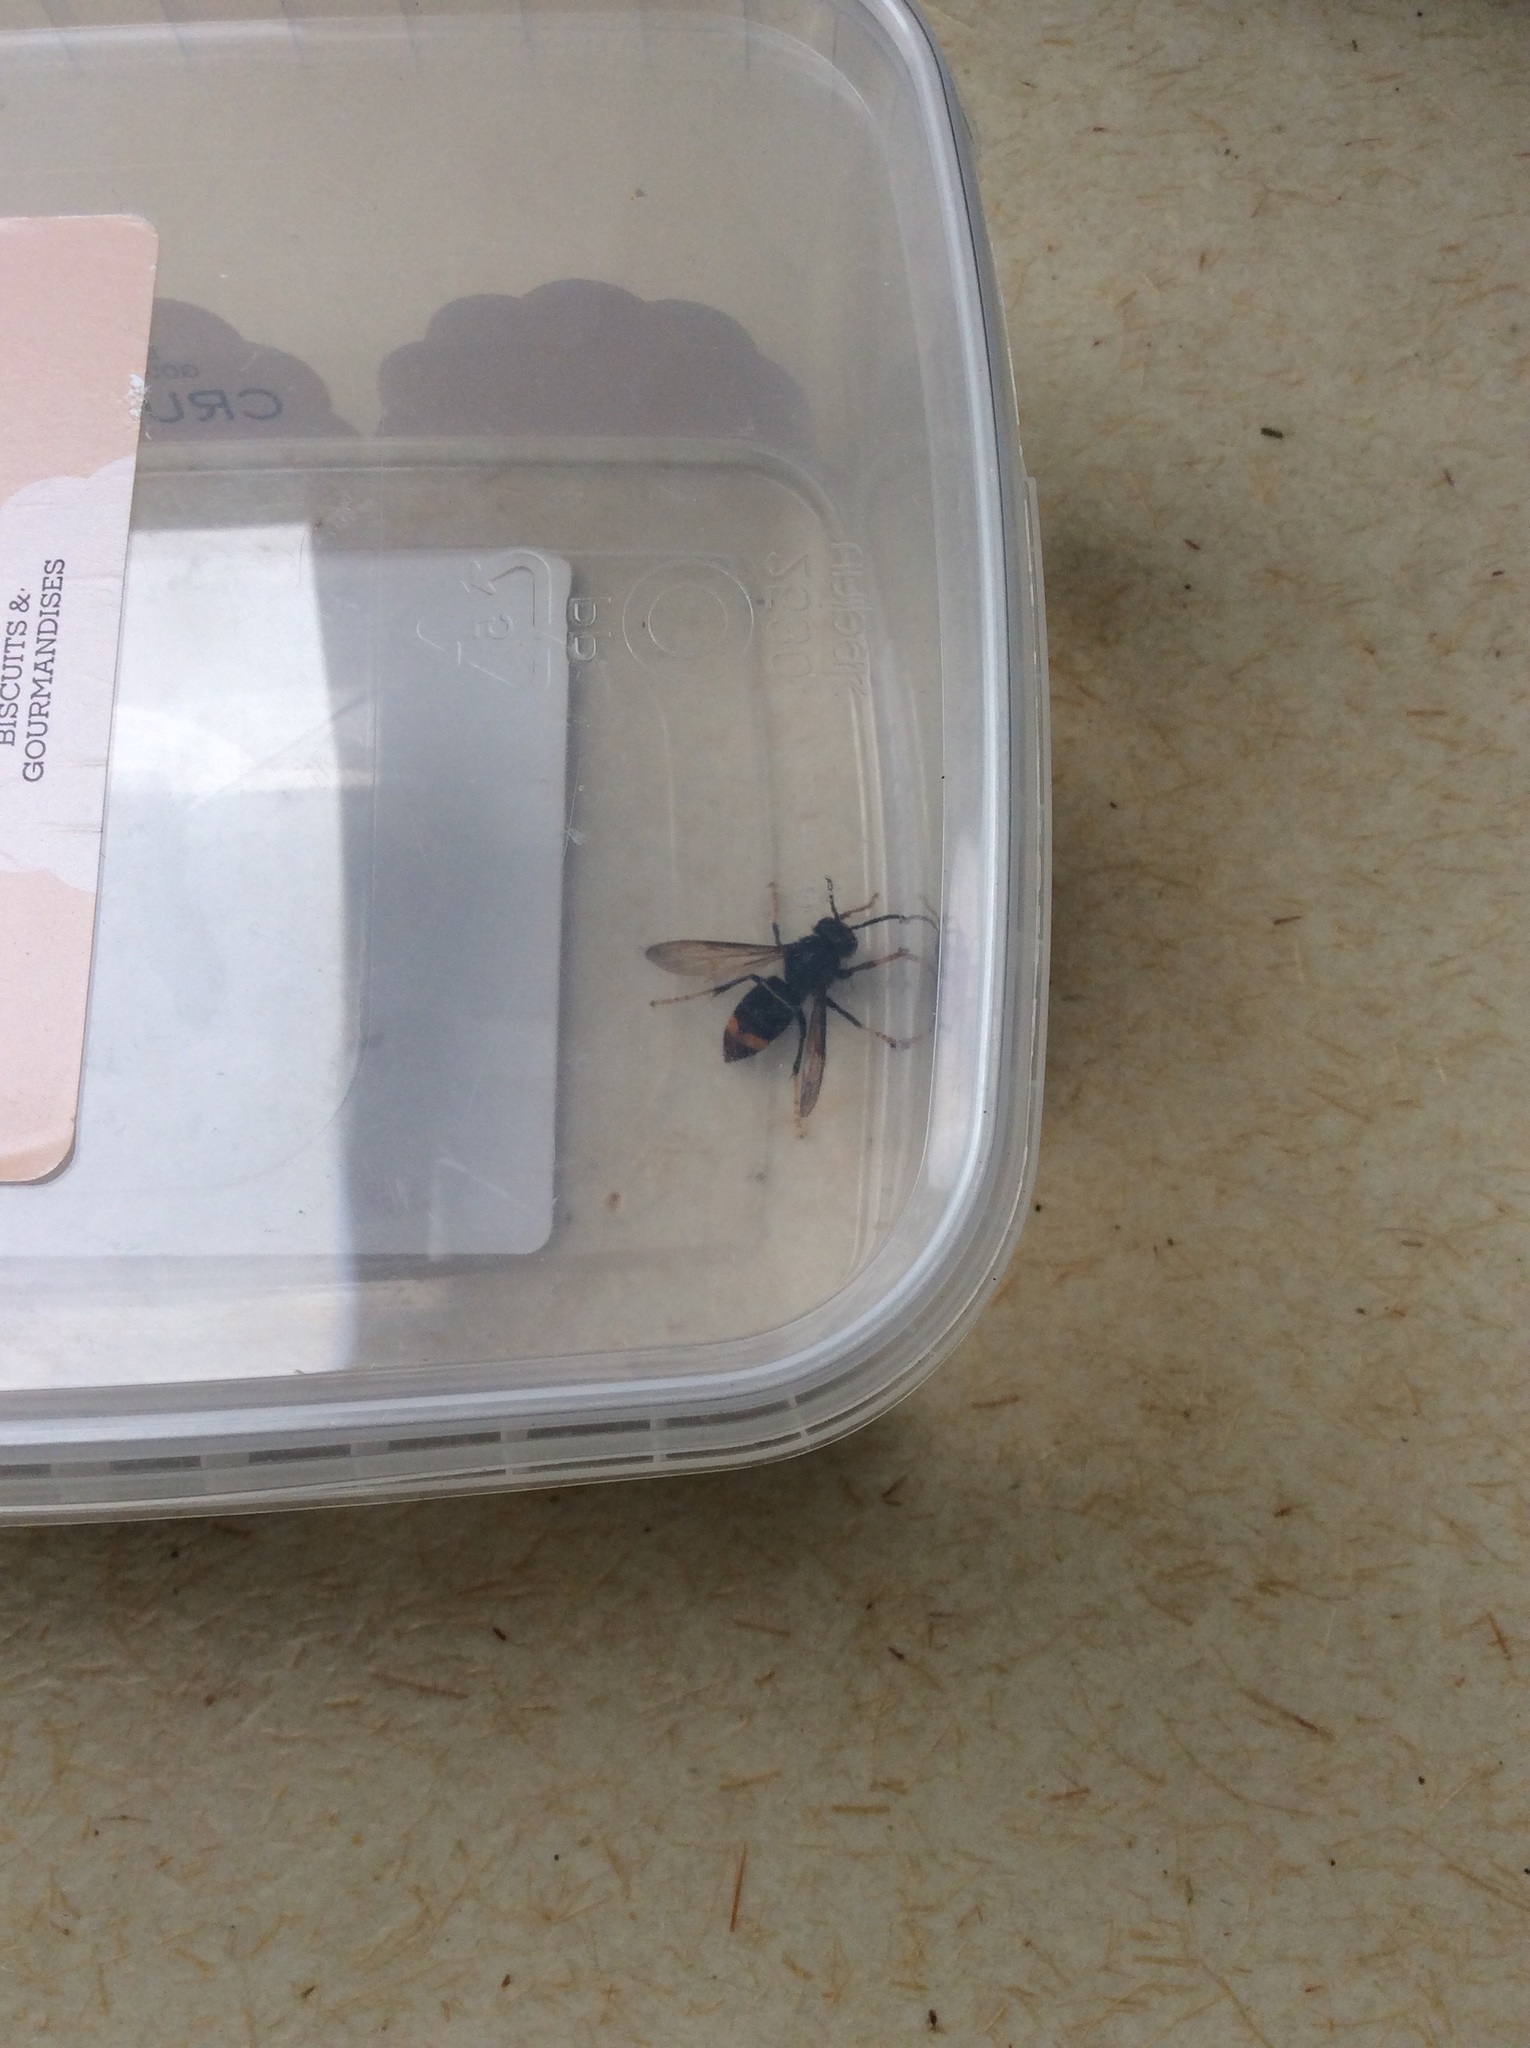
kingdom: Animalia
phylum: Arthropoda
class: Insecta
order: Hymenoptera
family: Vespidae
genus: Vespa
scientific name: Vespa velutina
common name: Asian hornet
